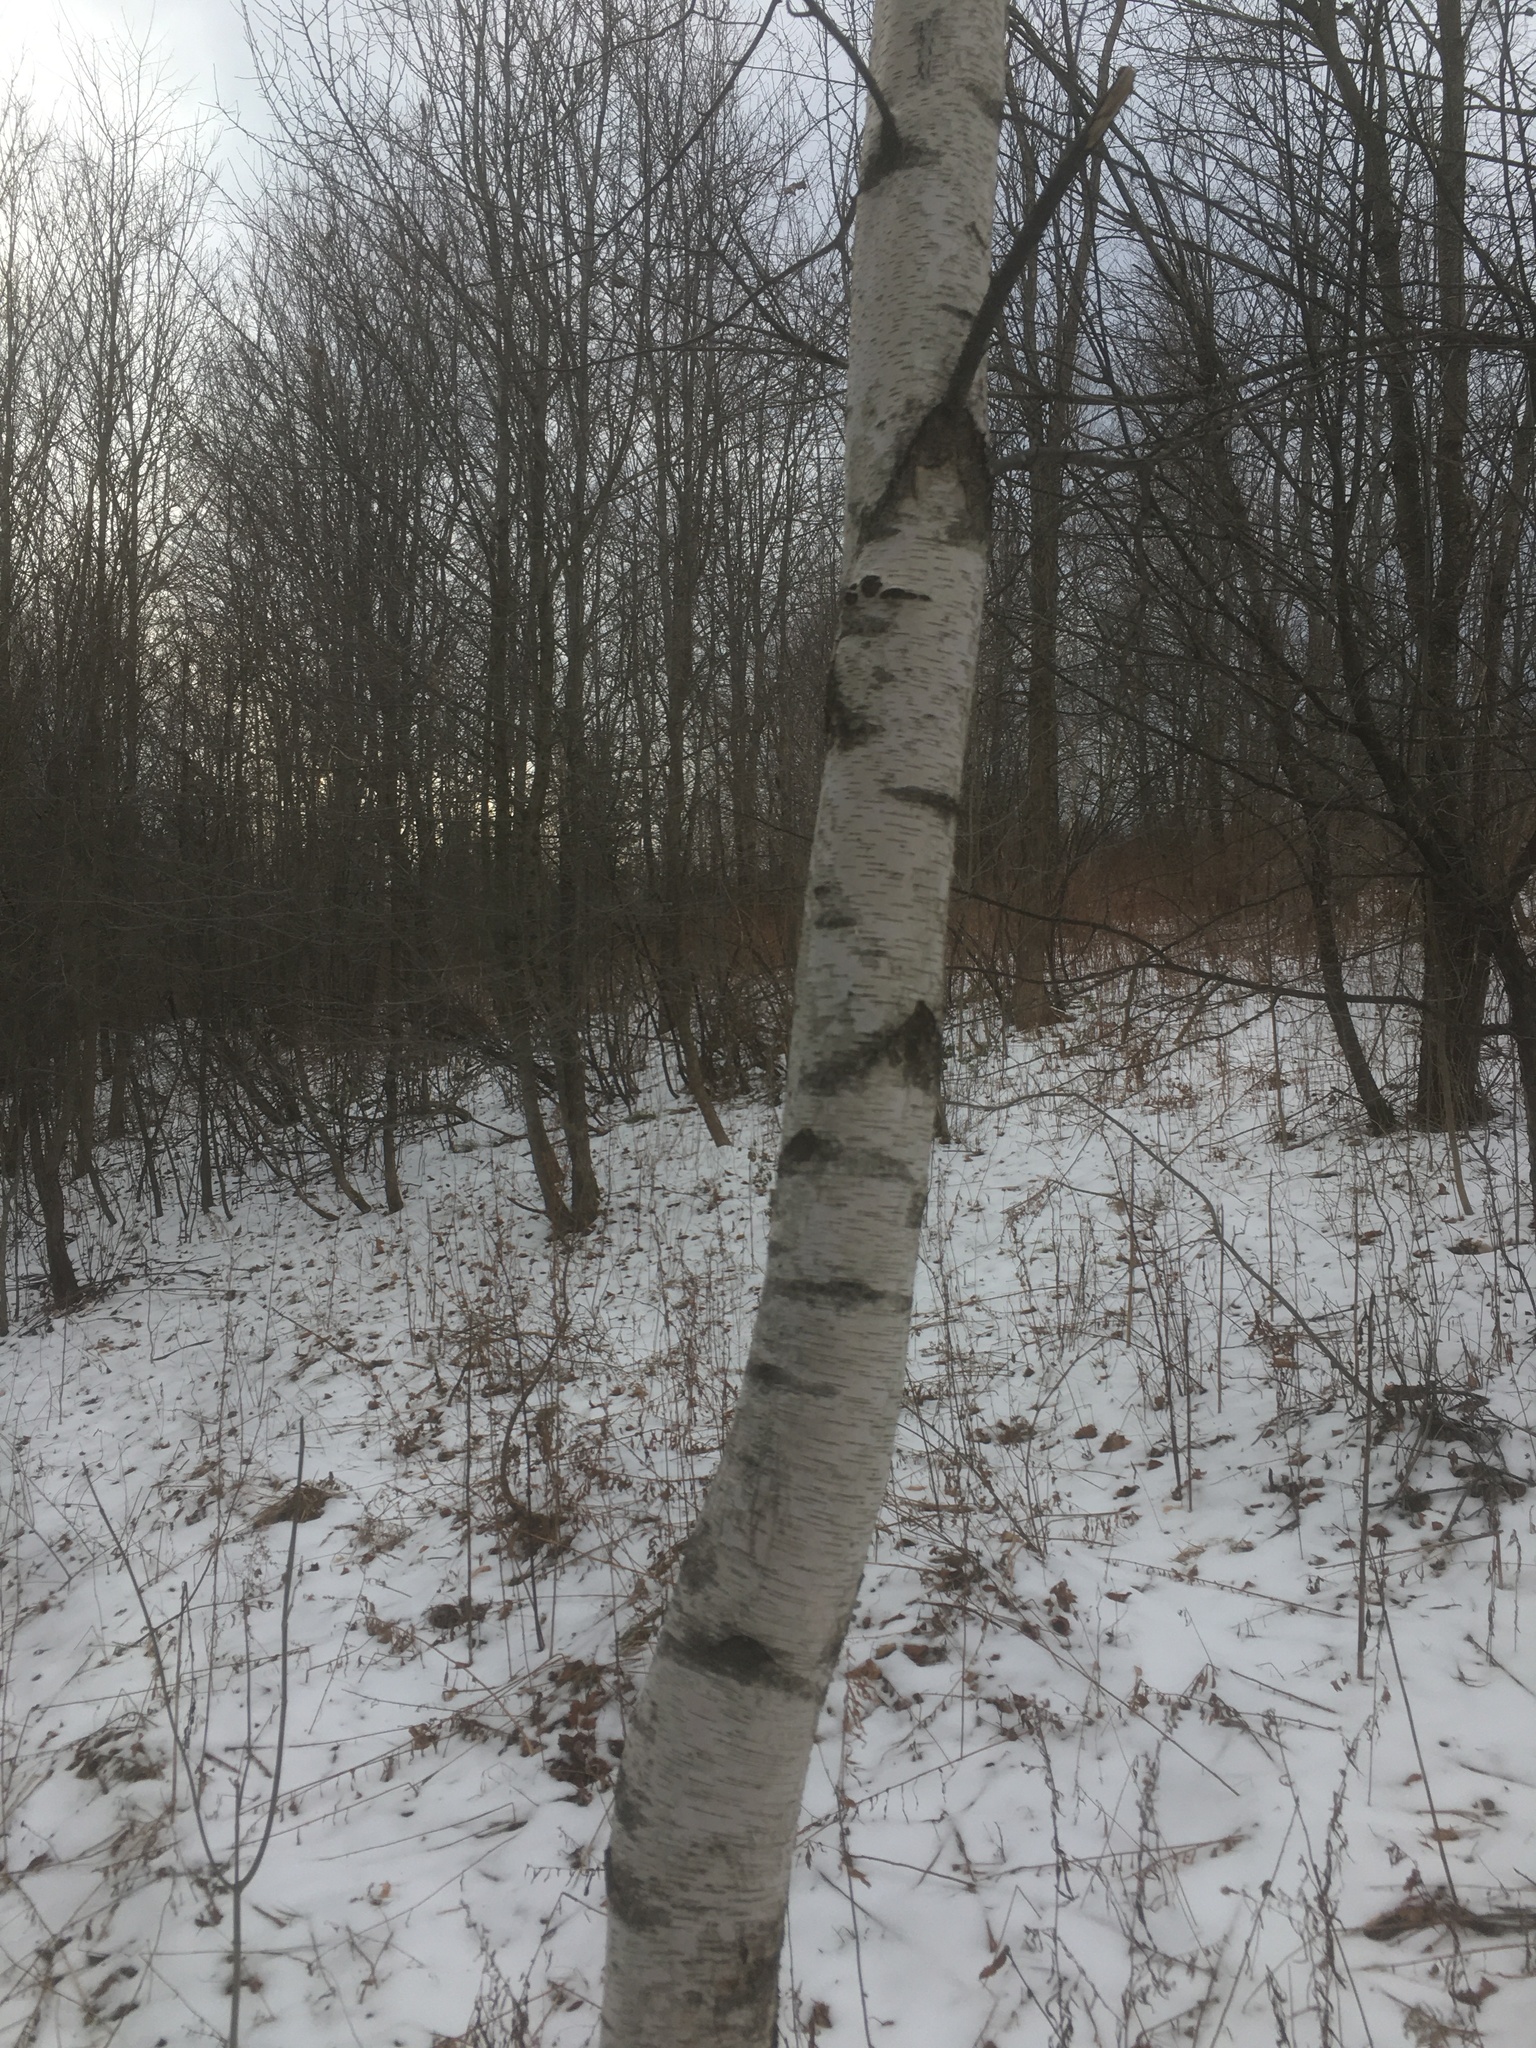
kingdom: Plantae
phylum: Tracheophyta
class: Magnoliopsida
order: Fagales
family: Betulaceae
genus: Betula
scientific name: Betula populifolia
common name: Fire birch
